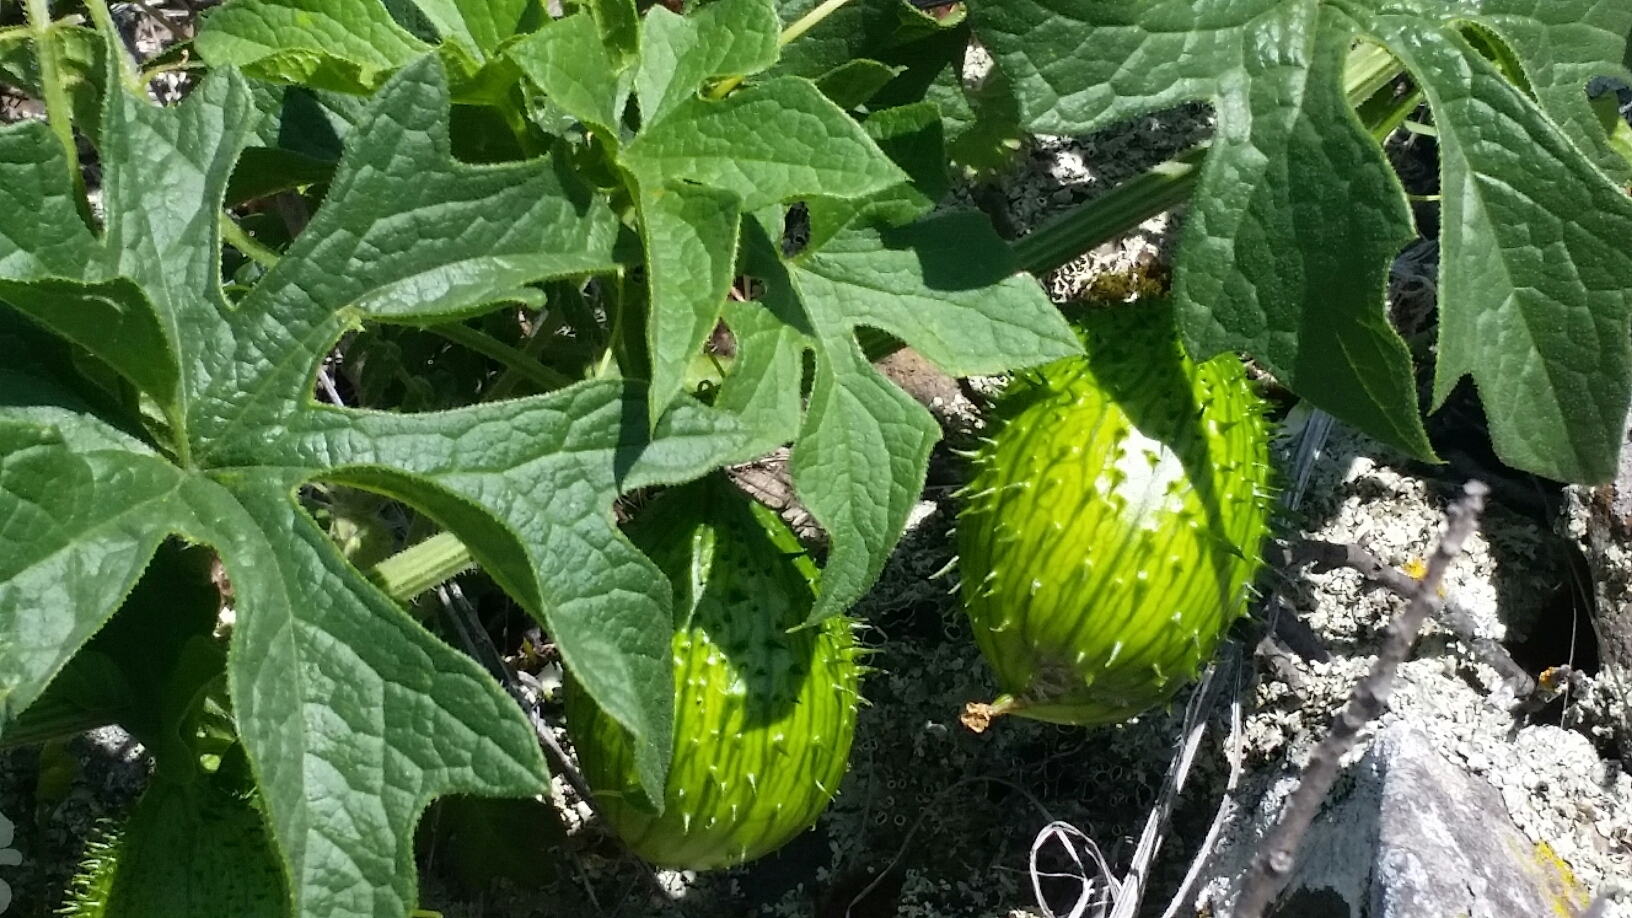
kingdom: Plantae
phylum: Tracheophyta
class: Magnoliopsida
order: Cucurbitales
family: Cucurbitaceae
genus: Marah
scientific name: Marah oregana
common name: Coastal manroot
